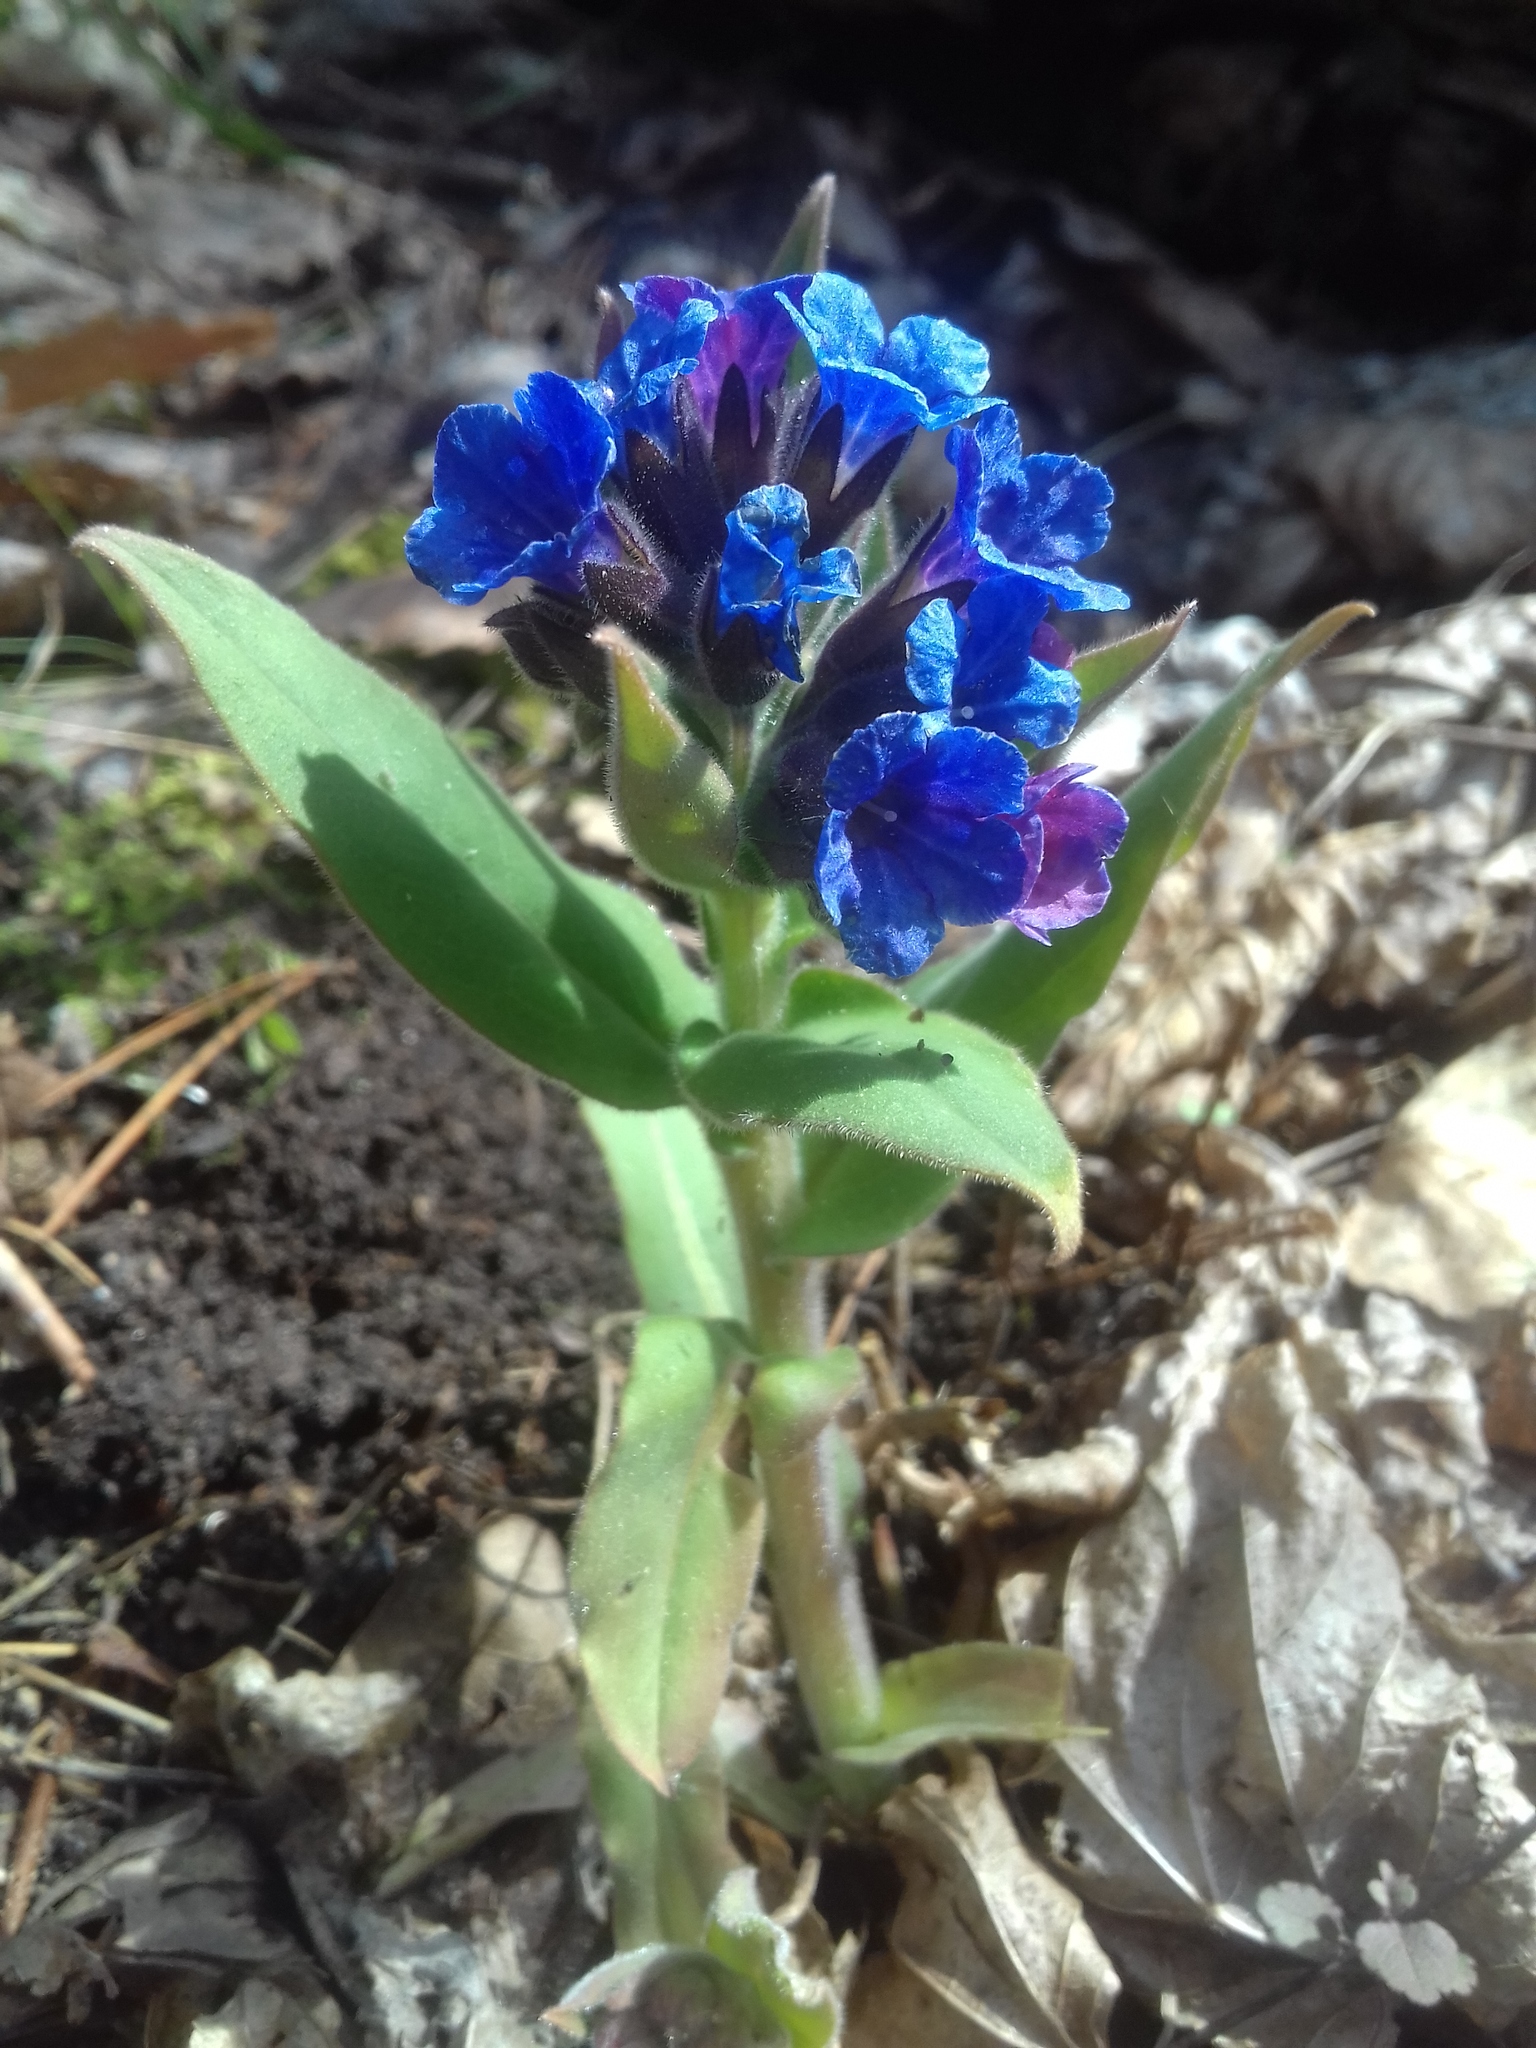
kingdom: Plantae
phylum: Tracheophyta
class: Magnoliopsida
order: Boraginales
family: Boraginaceae
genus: Pulmonaria
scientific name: Pulmonaria mollis
